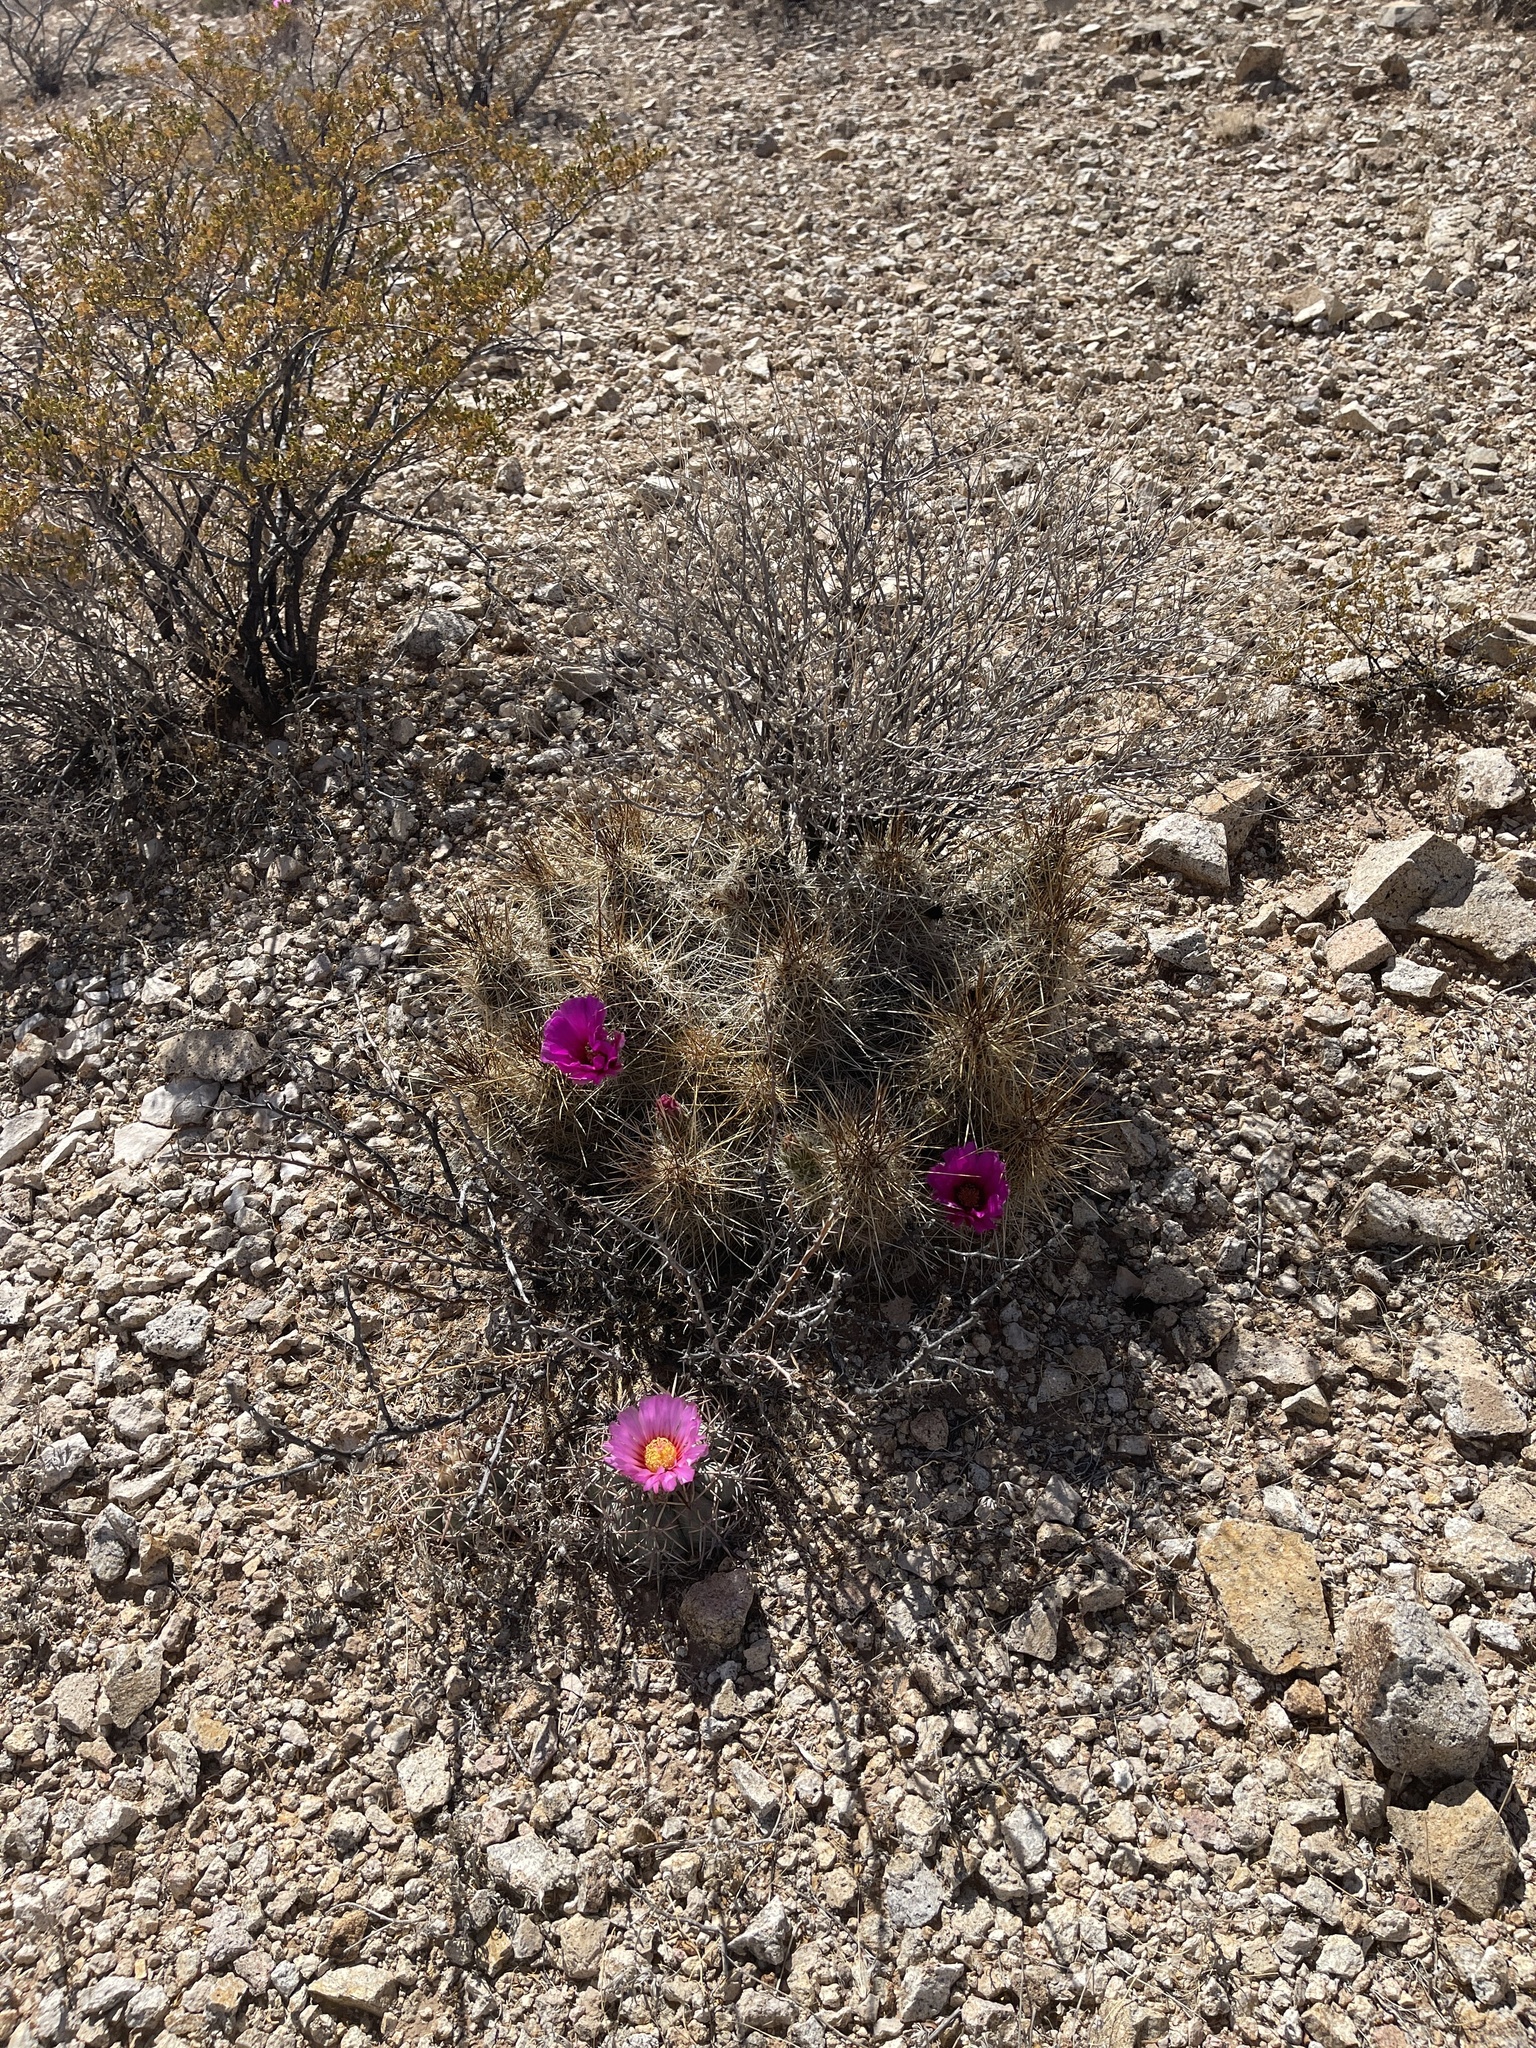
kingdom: Plantae
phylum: Tracheophyta
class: Magnoliopsida
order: Caryophyllales
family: Cactaceae
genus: Echinocereus
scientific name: Echinocereus stramineus
